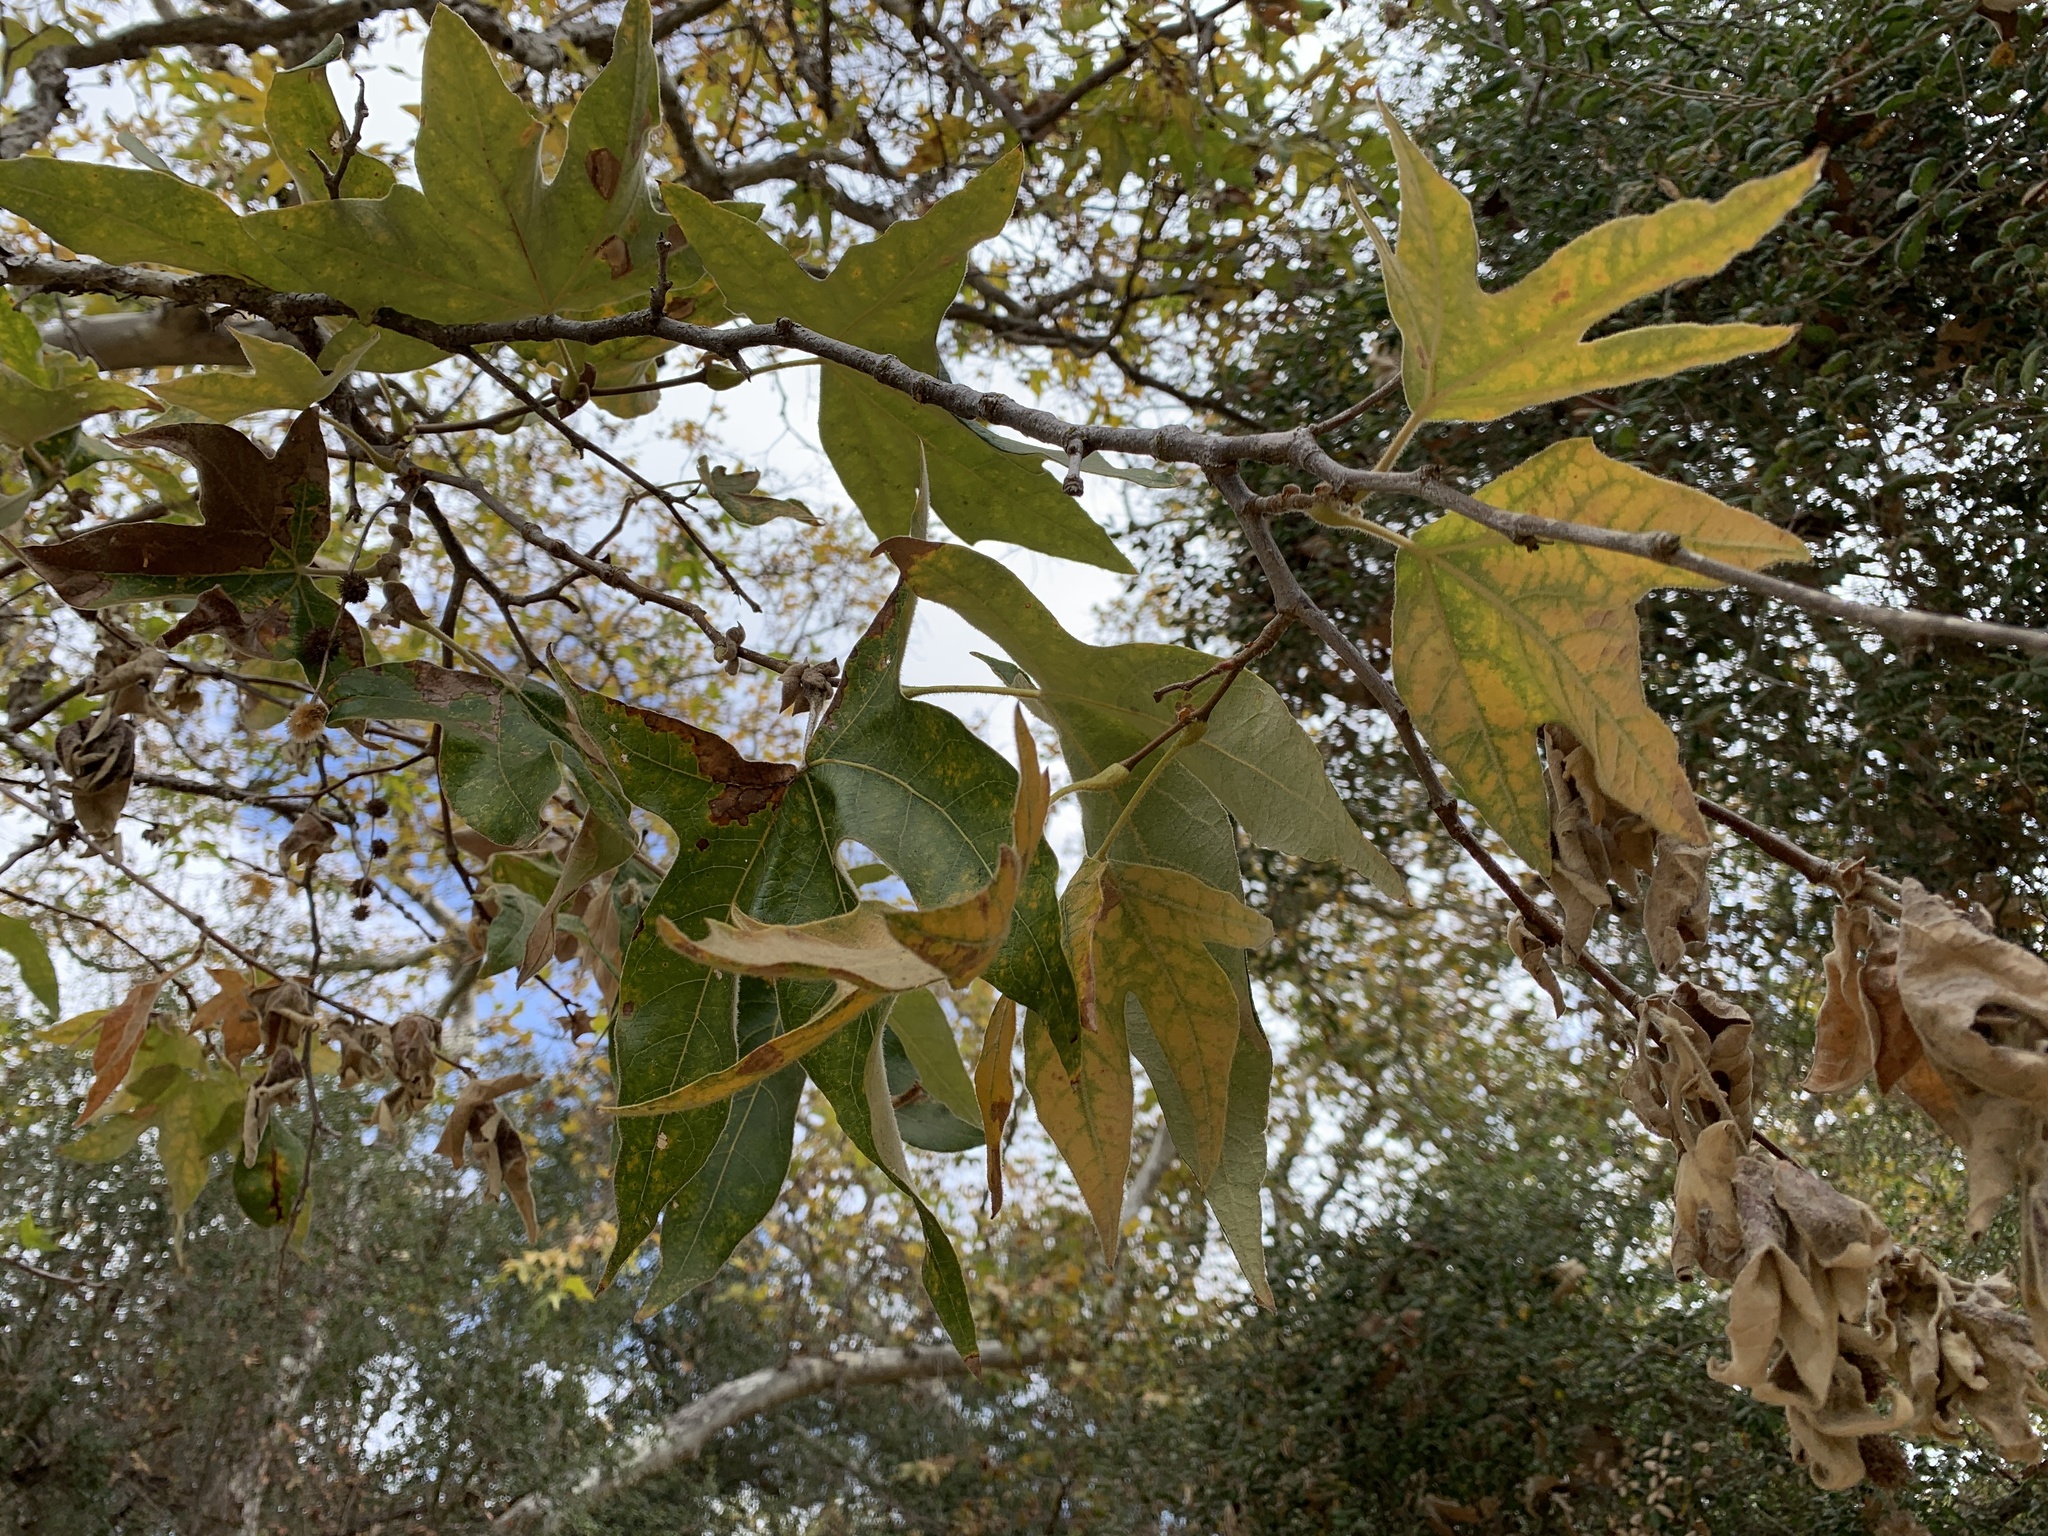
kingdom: Plantae
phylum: Tracheophyta
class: Magnoliopsida
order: Proteales
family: Platanaceae
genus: Platanus
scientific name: Platanus racemosa
